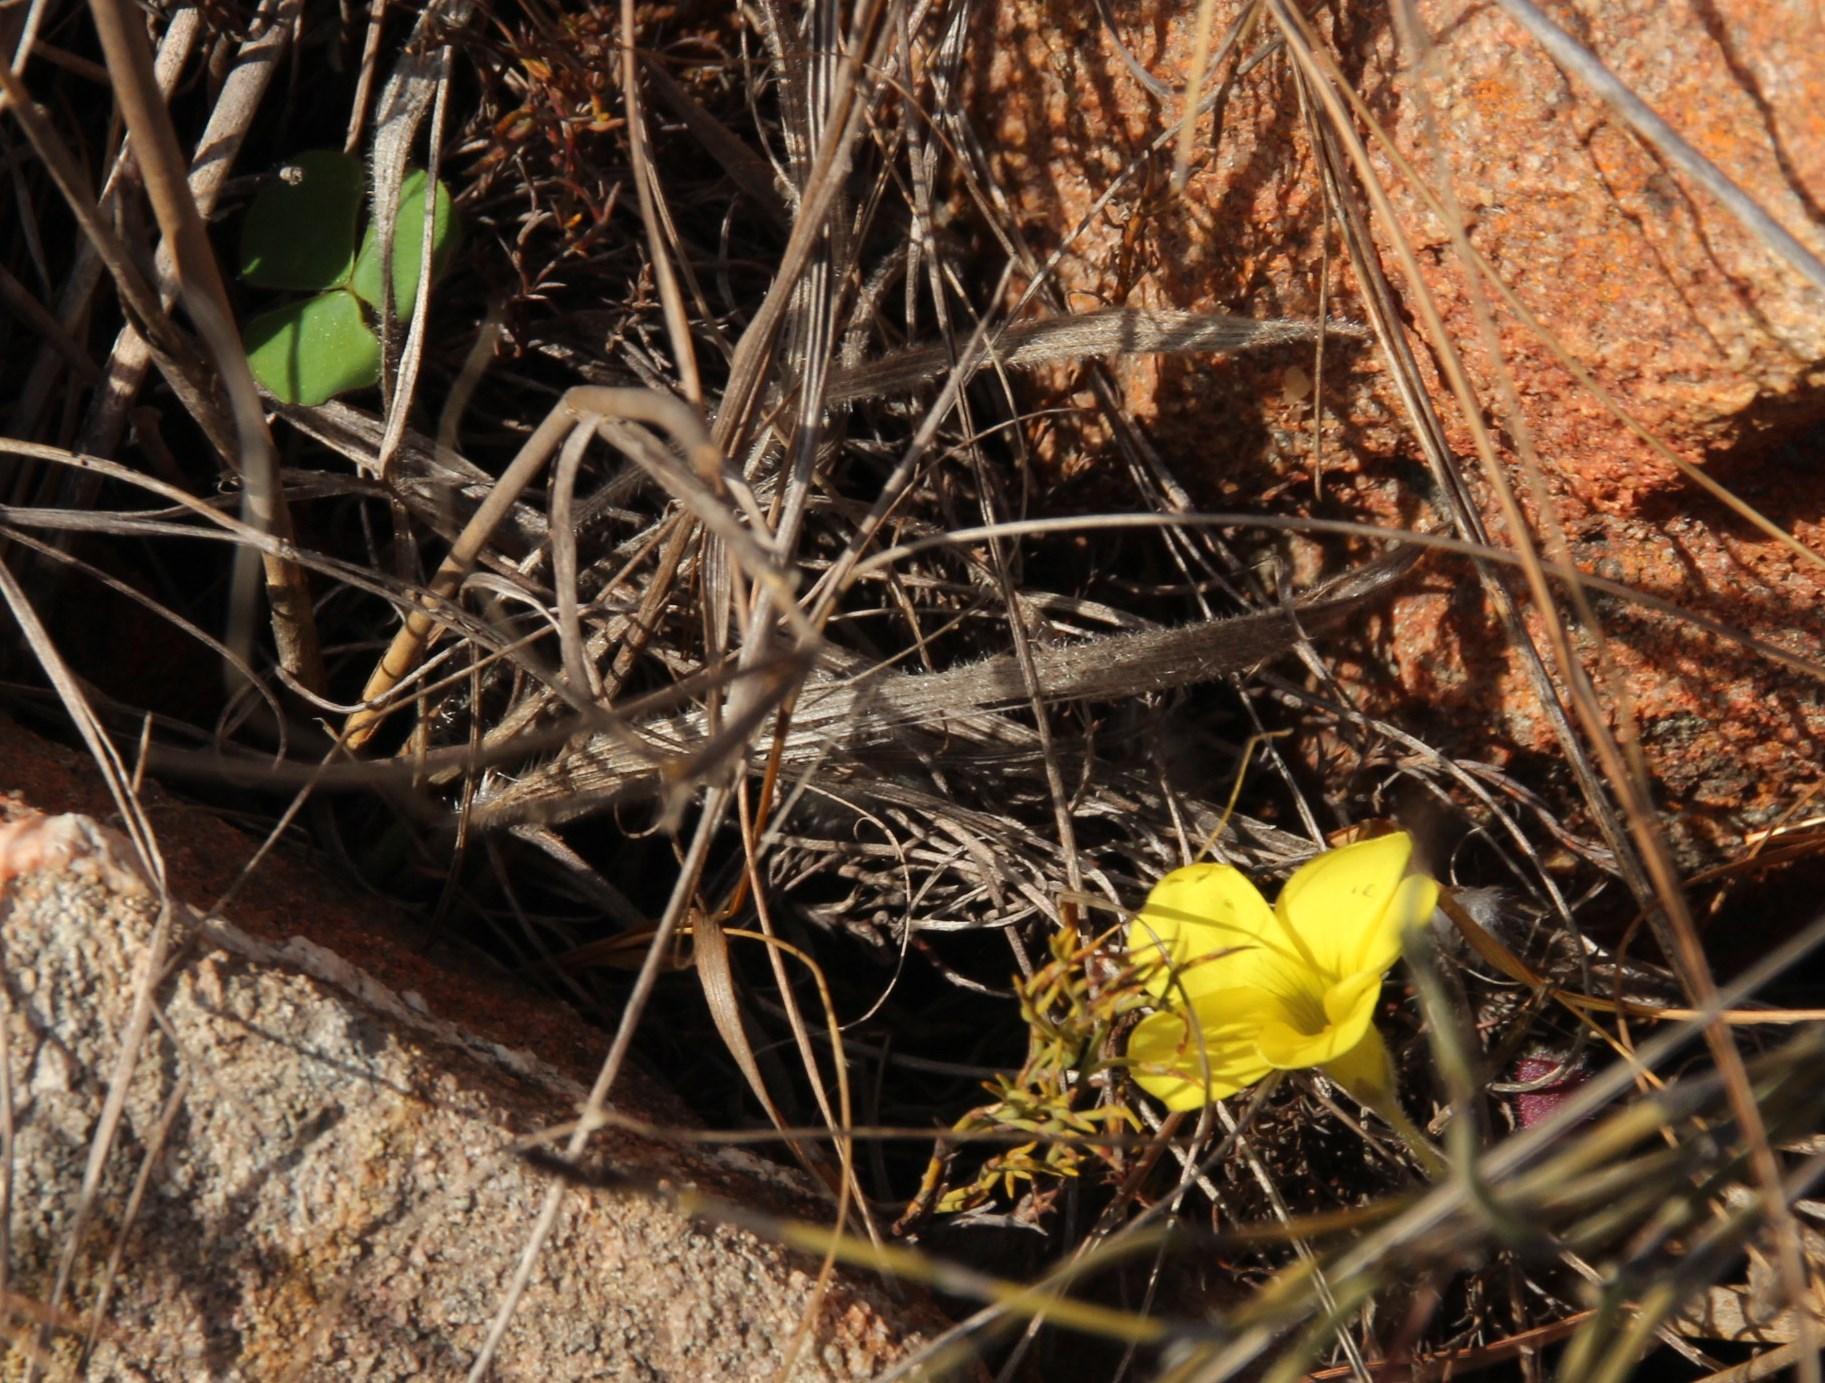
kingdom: Plantae
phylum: Tracheophyta
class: Magnoliopsida
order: Oxalidales
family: Oxalidaceae
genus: Oxalis
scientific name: Oxalis luteola
